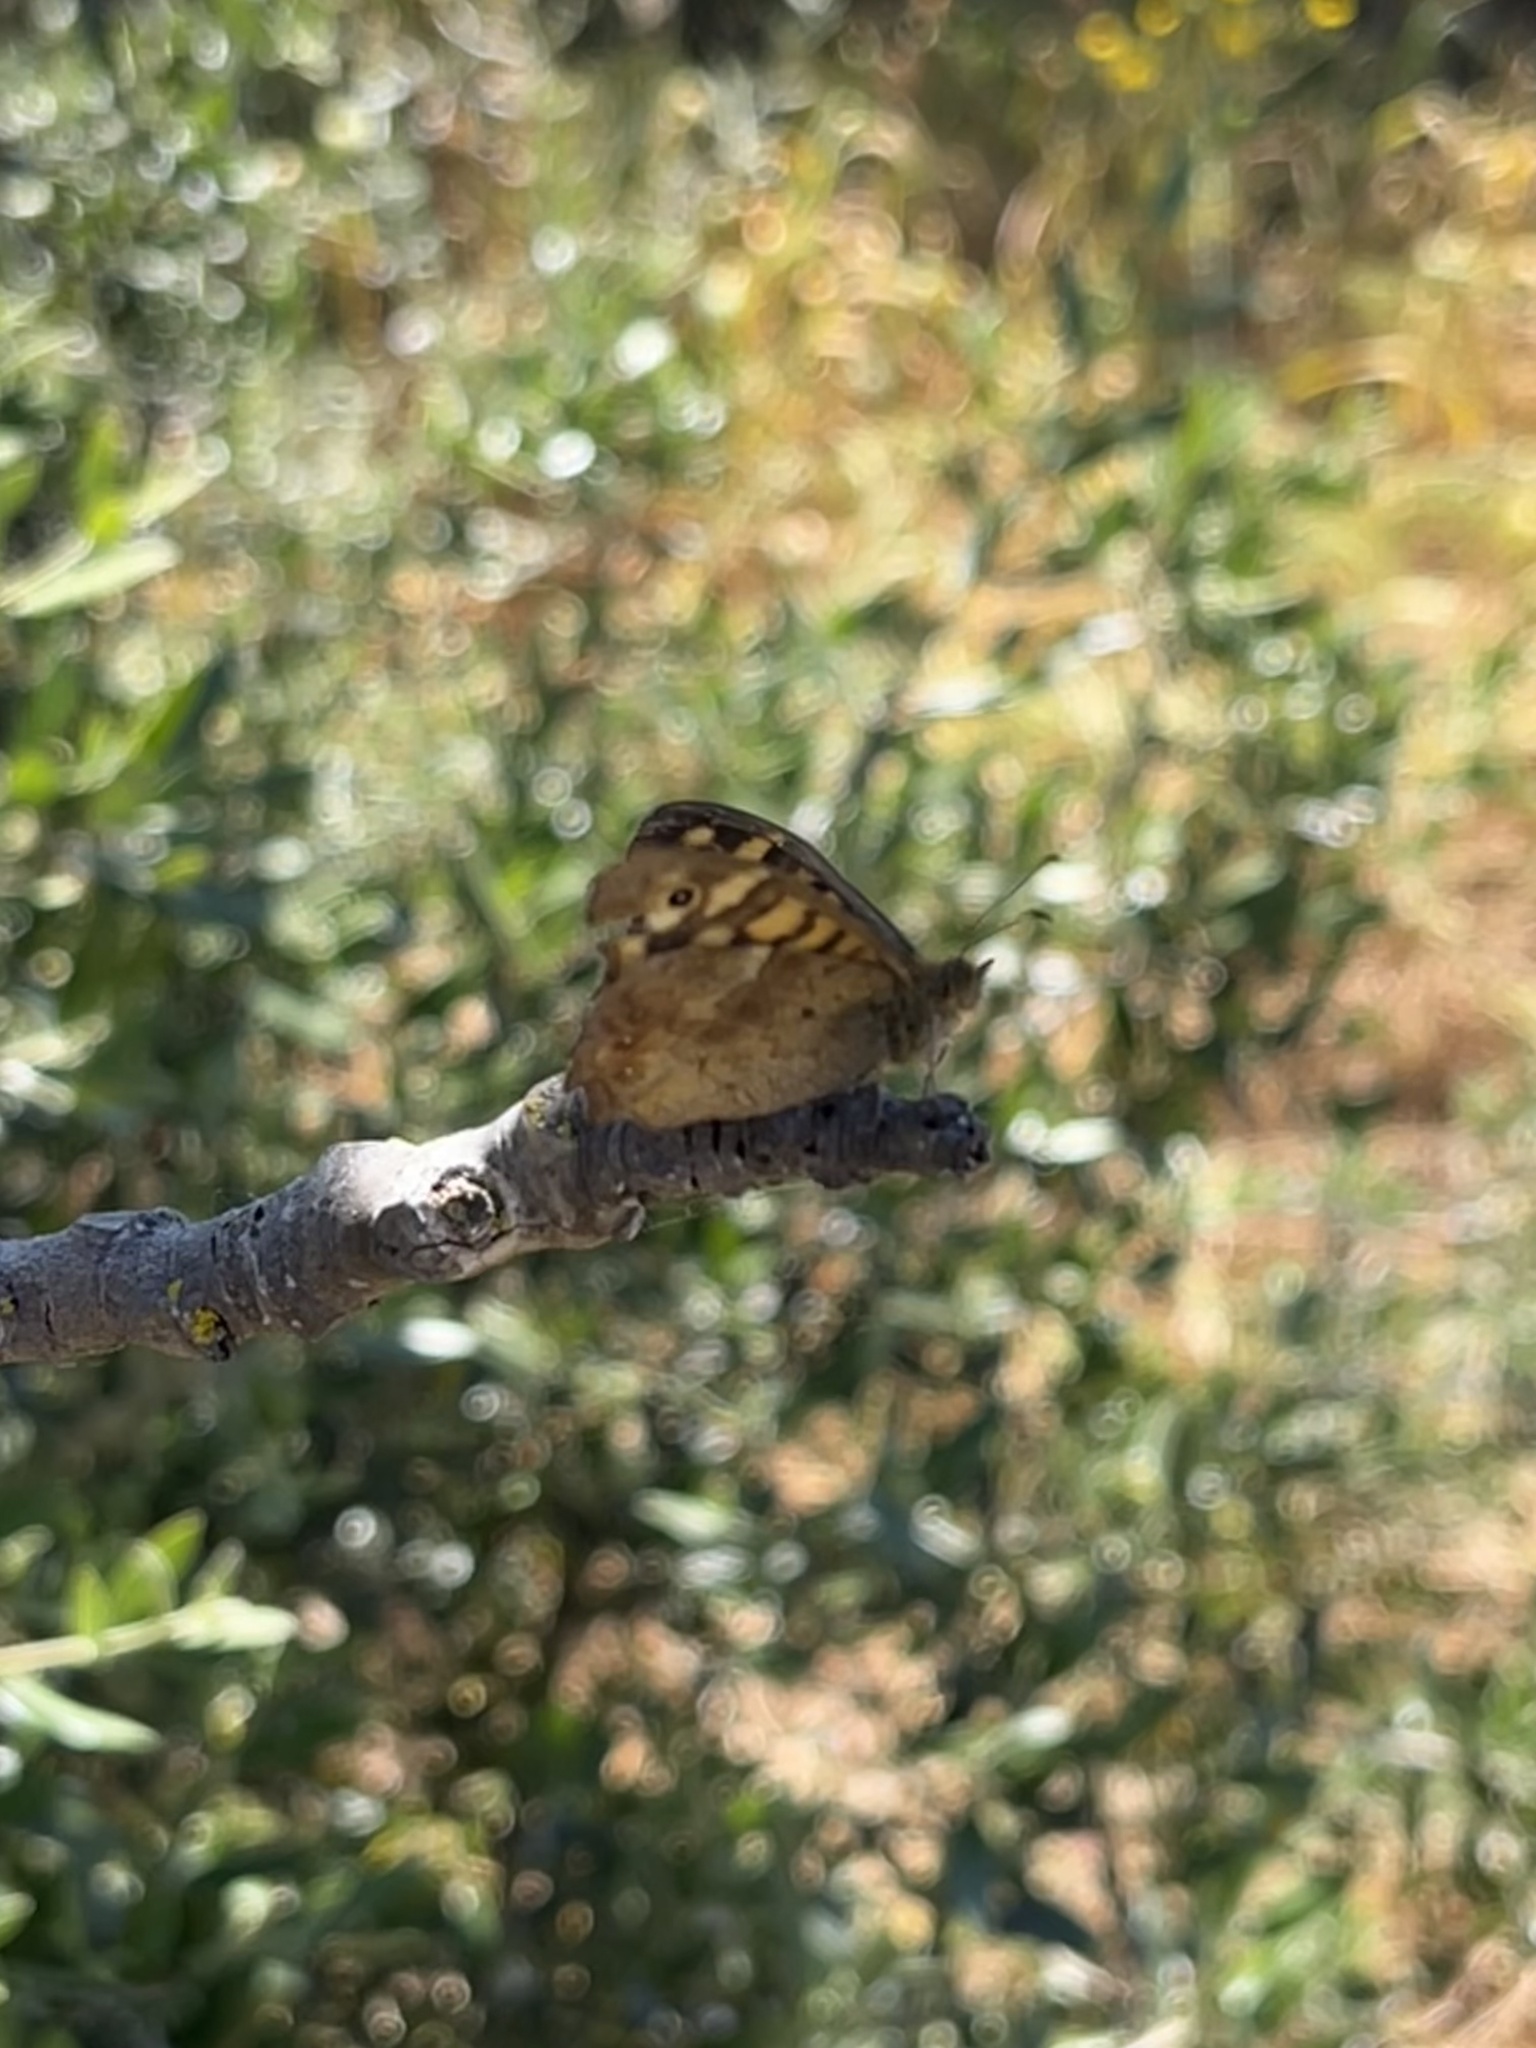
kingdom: Animalia
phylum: Arthropoda
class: Insecta
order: Lepidoptera
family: Nymphalidae
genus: Pararge
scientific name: Pararge aegeria
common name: Speckled wood
